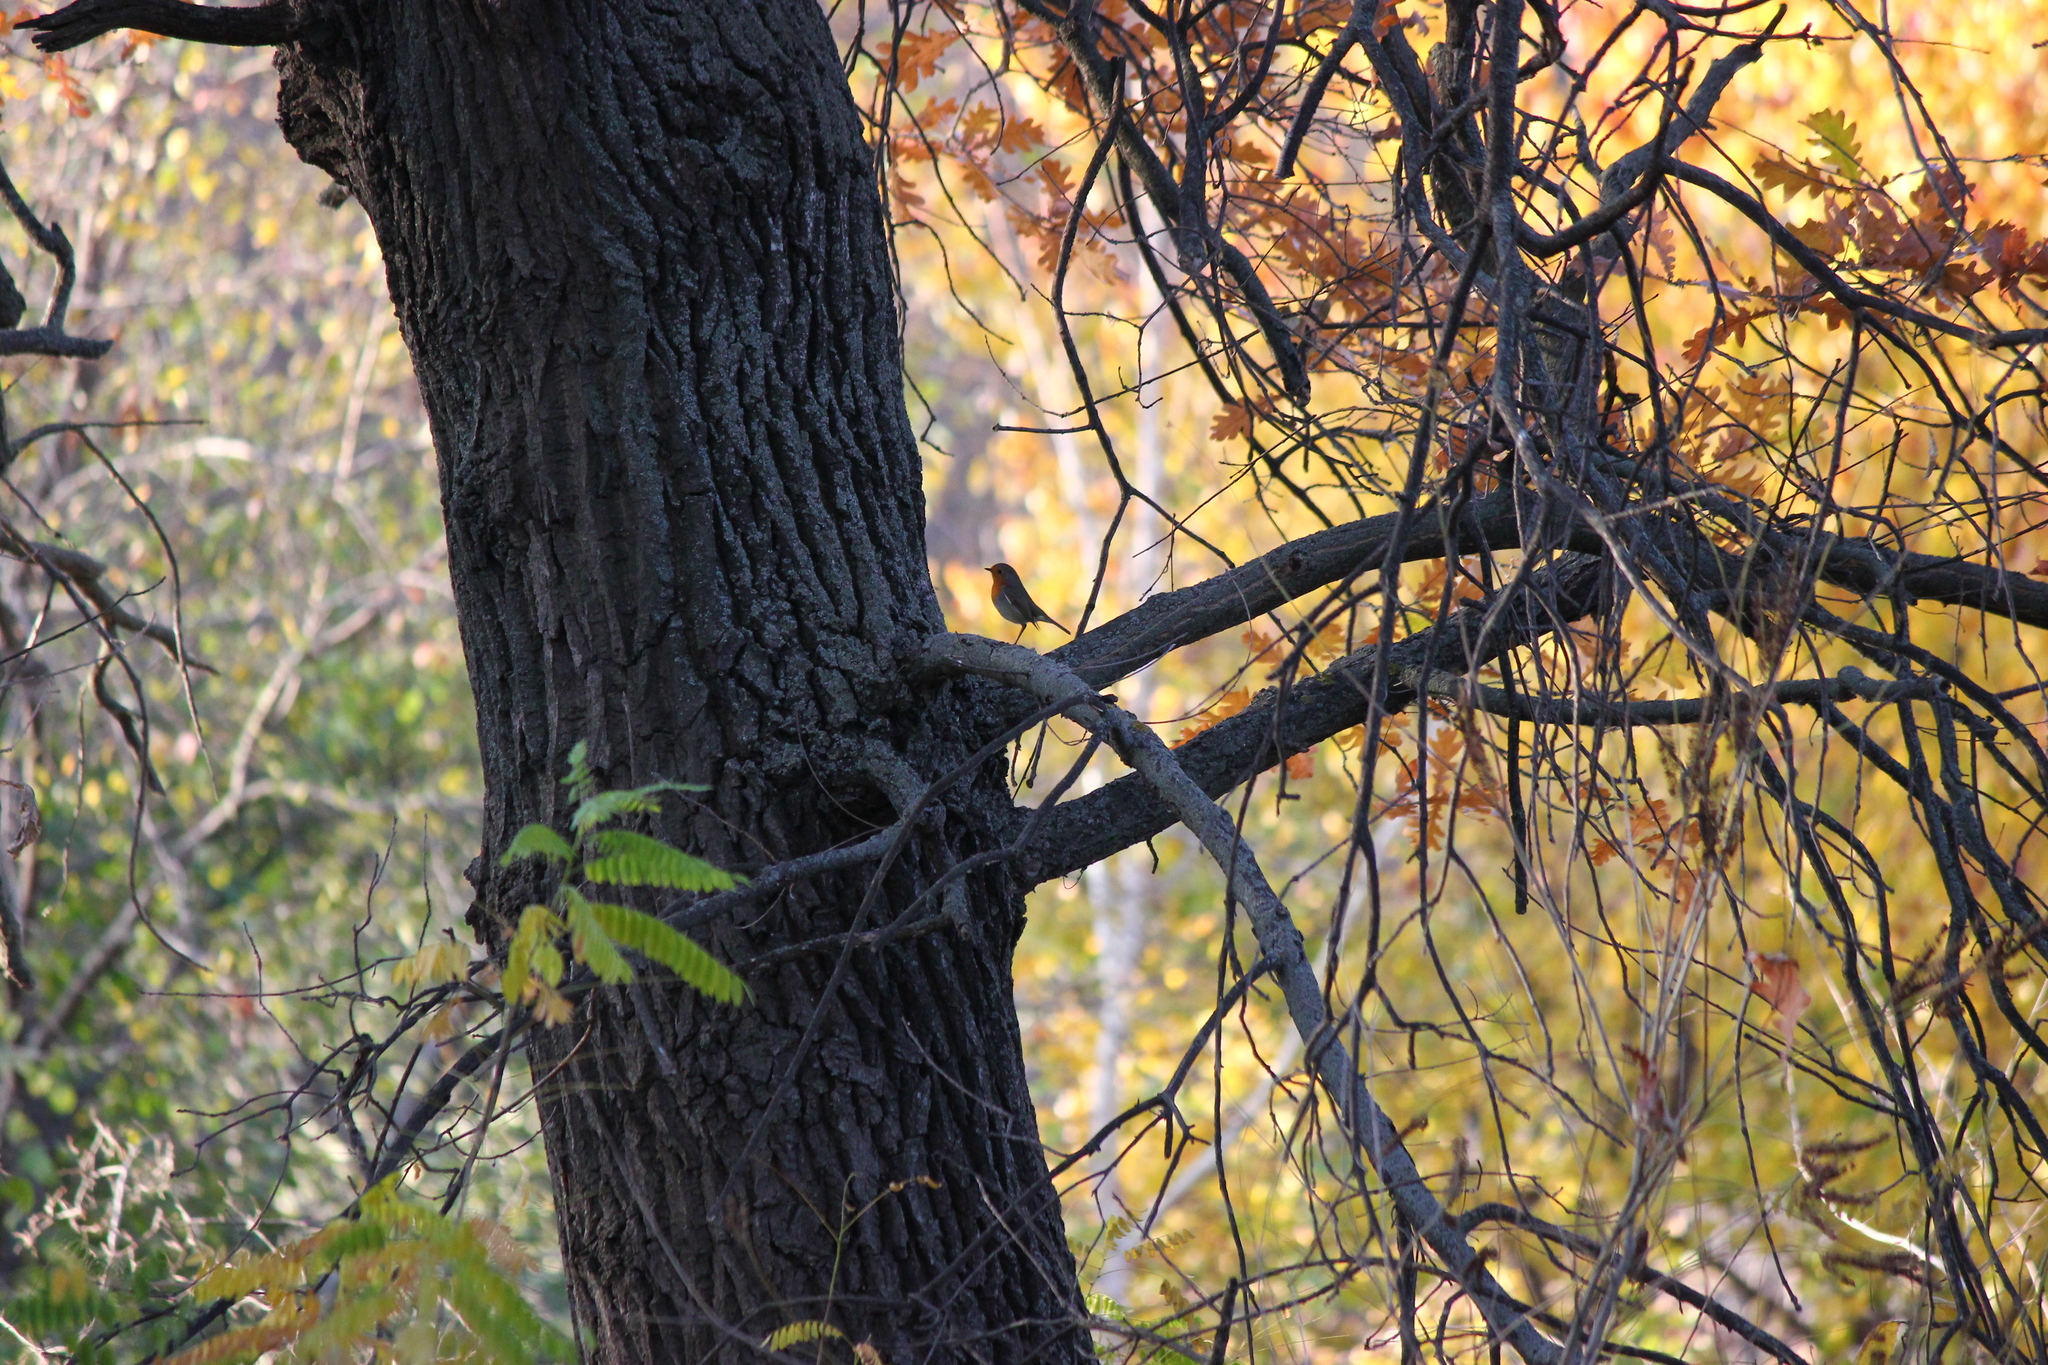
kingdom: Animalia
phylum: Chordata
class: Aves
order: Passeriformes
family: Muscicapidae
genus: Erithacus
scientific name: Erithacus rubecula
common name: European robin
